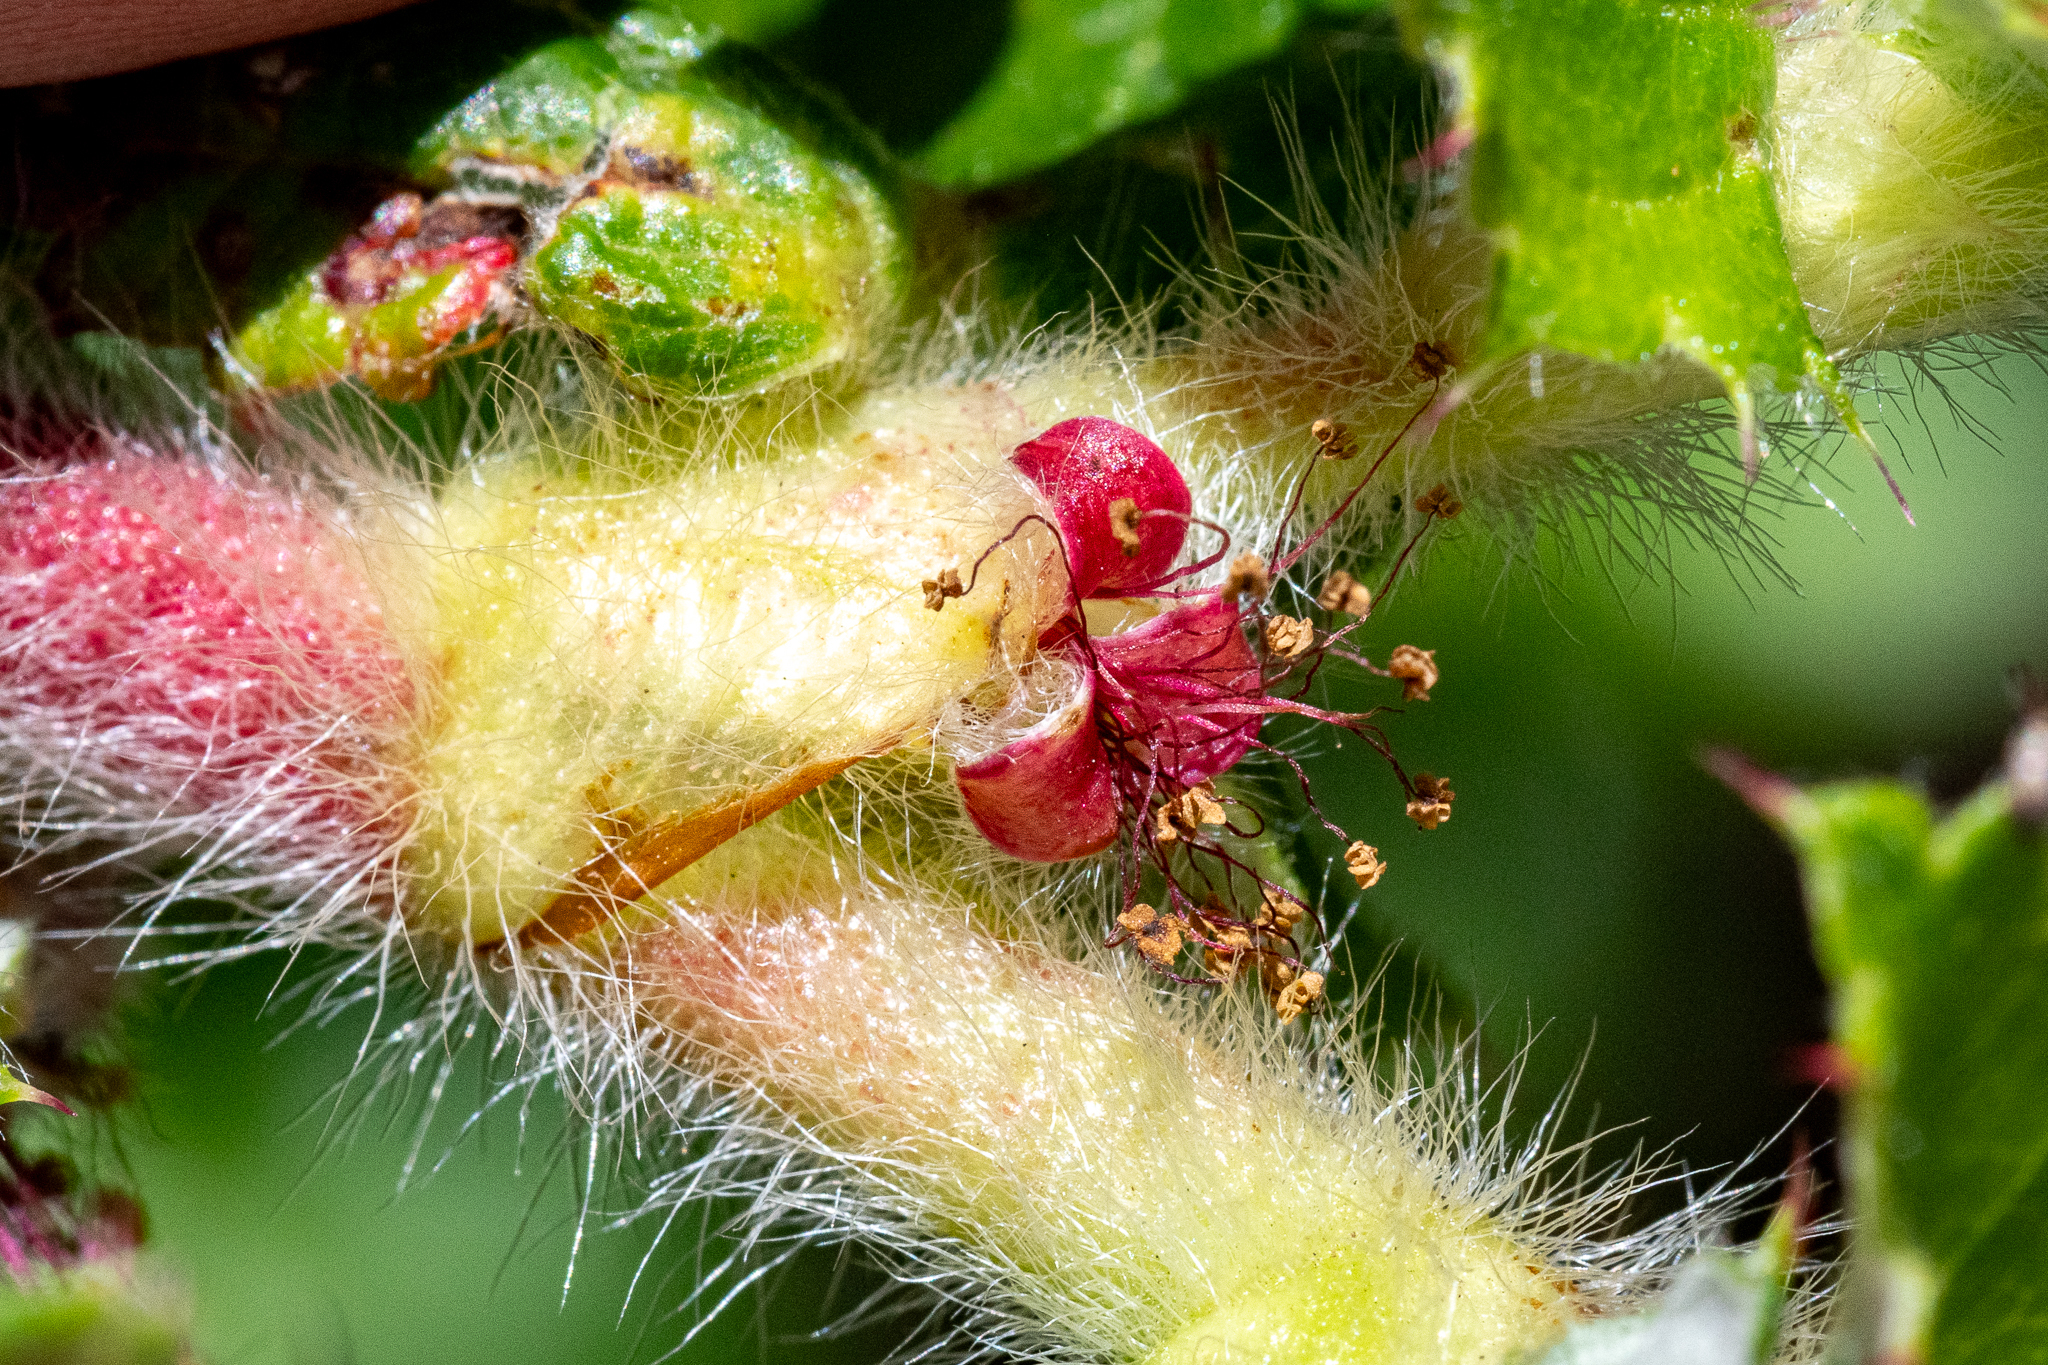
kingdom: Plantae
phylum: Tracheophyta
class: Magnoliopsida
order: Rosales
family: Rosaceae
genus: Cliffortia
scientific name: Cliffortia hirsuta
